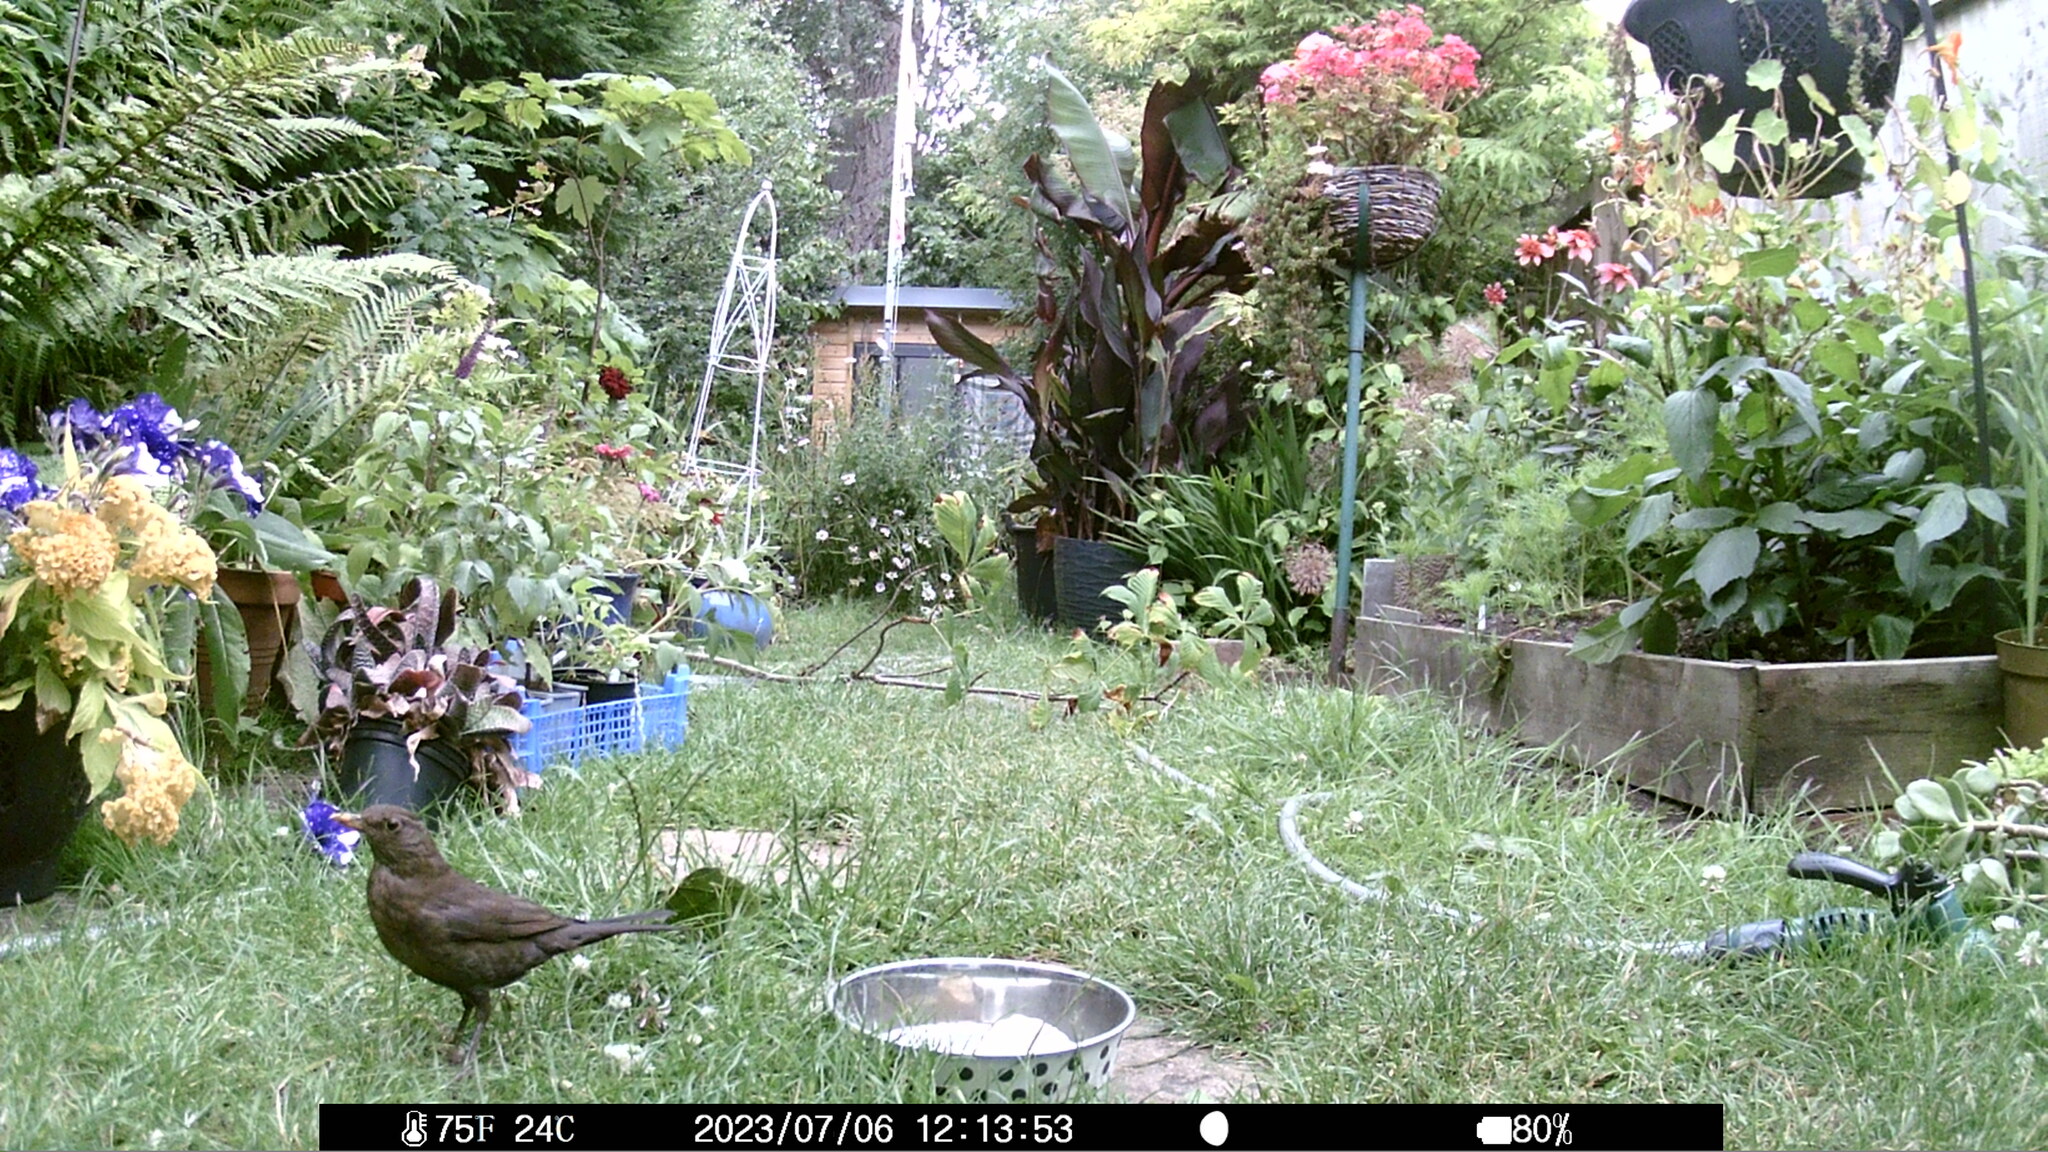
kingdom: Animalia
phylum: Chordata
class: Aves
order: Passeriformes
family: Turdidae
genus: Turdus
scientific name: Turdus merula
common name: Common blackbird
